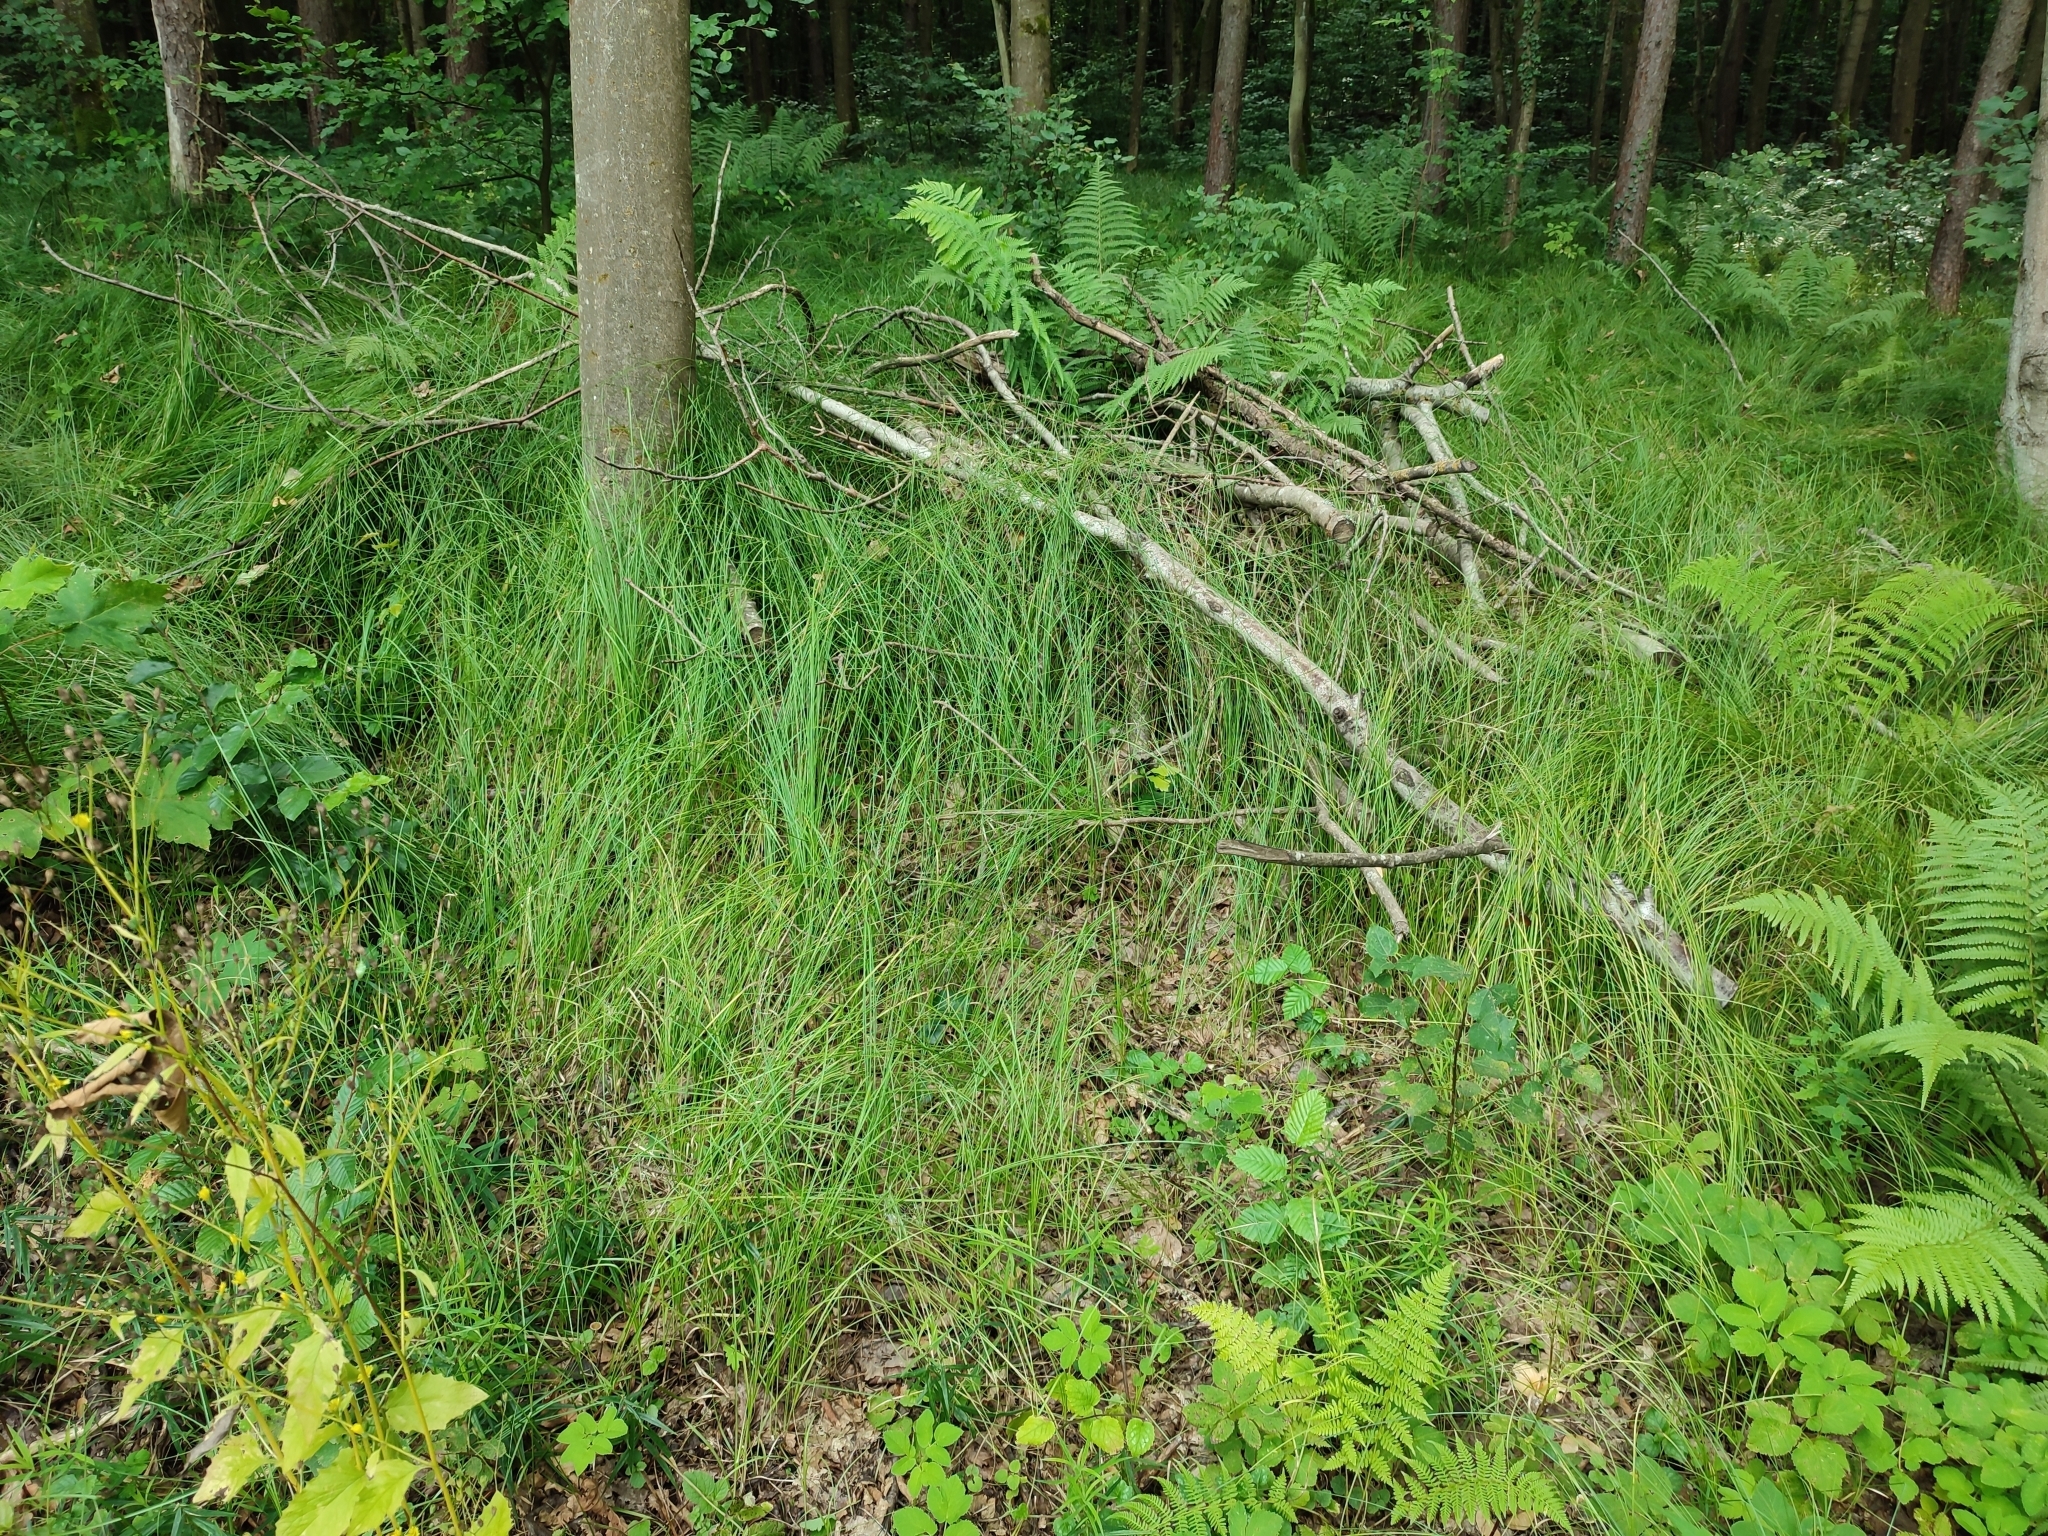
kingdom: Plantae
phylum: Tracheophyta
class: Liliopsida
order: Poales
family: Cyperaceae
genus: Carex
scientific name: Carex brizoides
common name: Quaking-grass sedge
